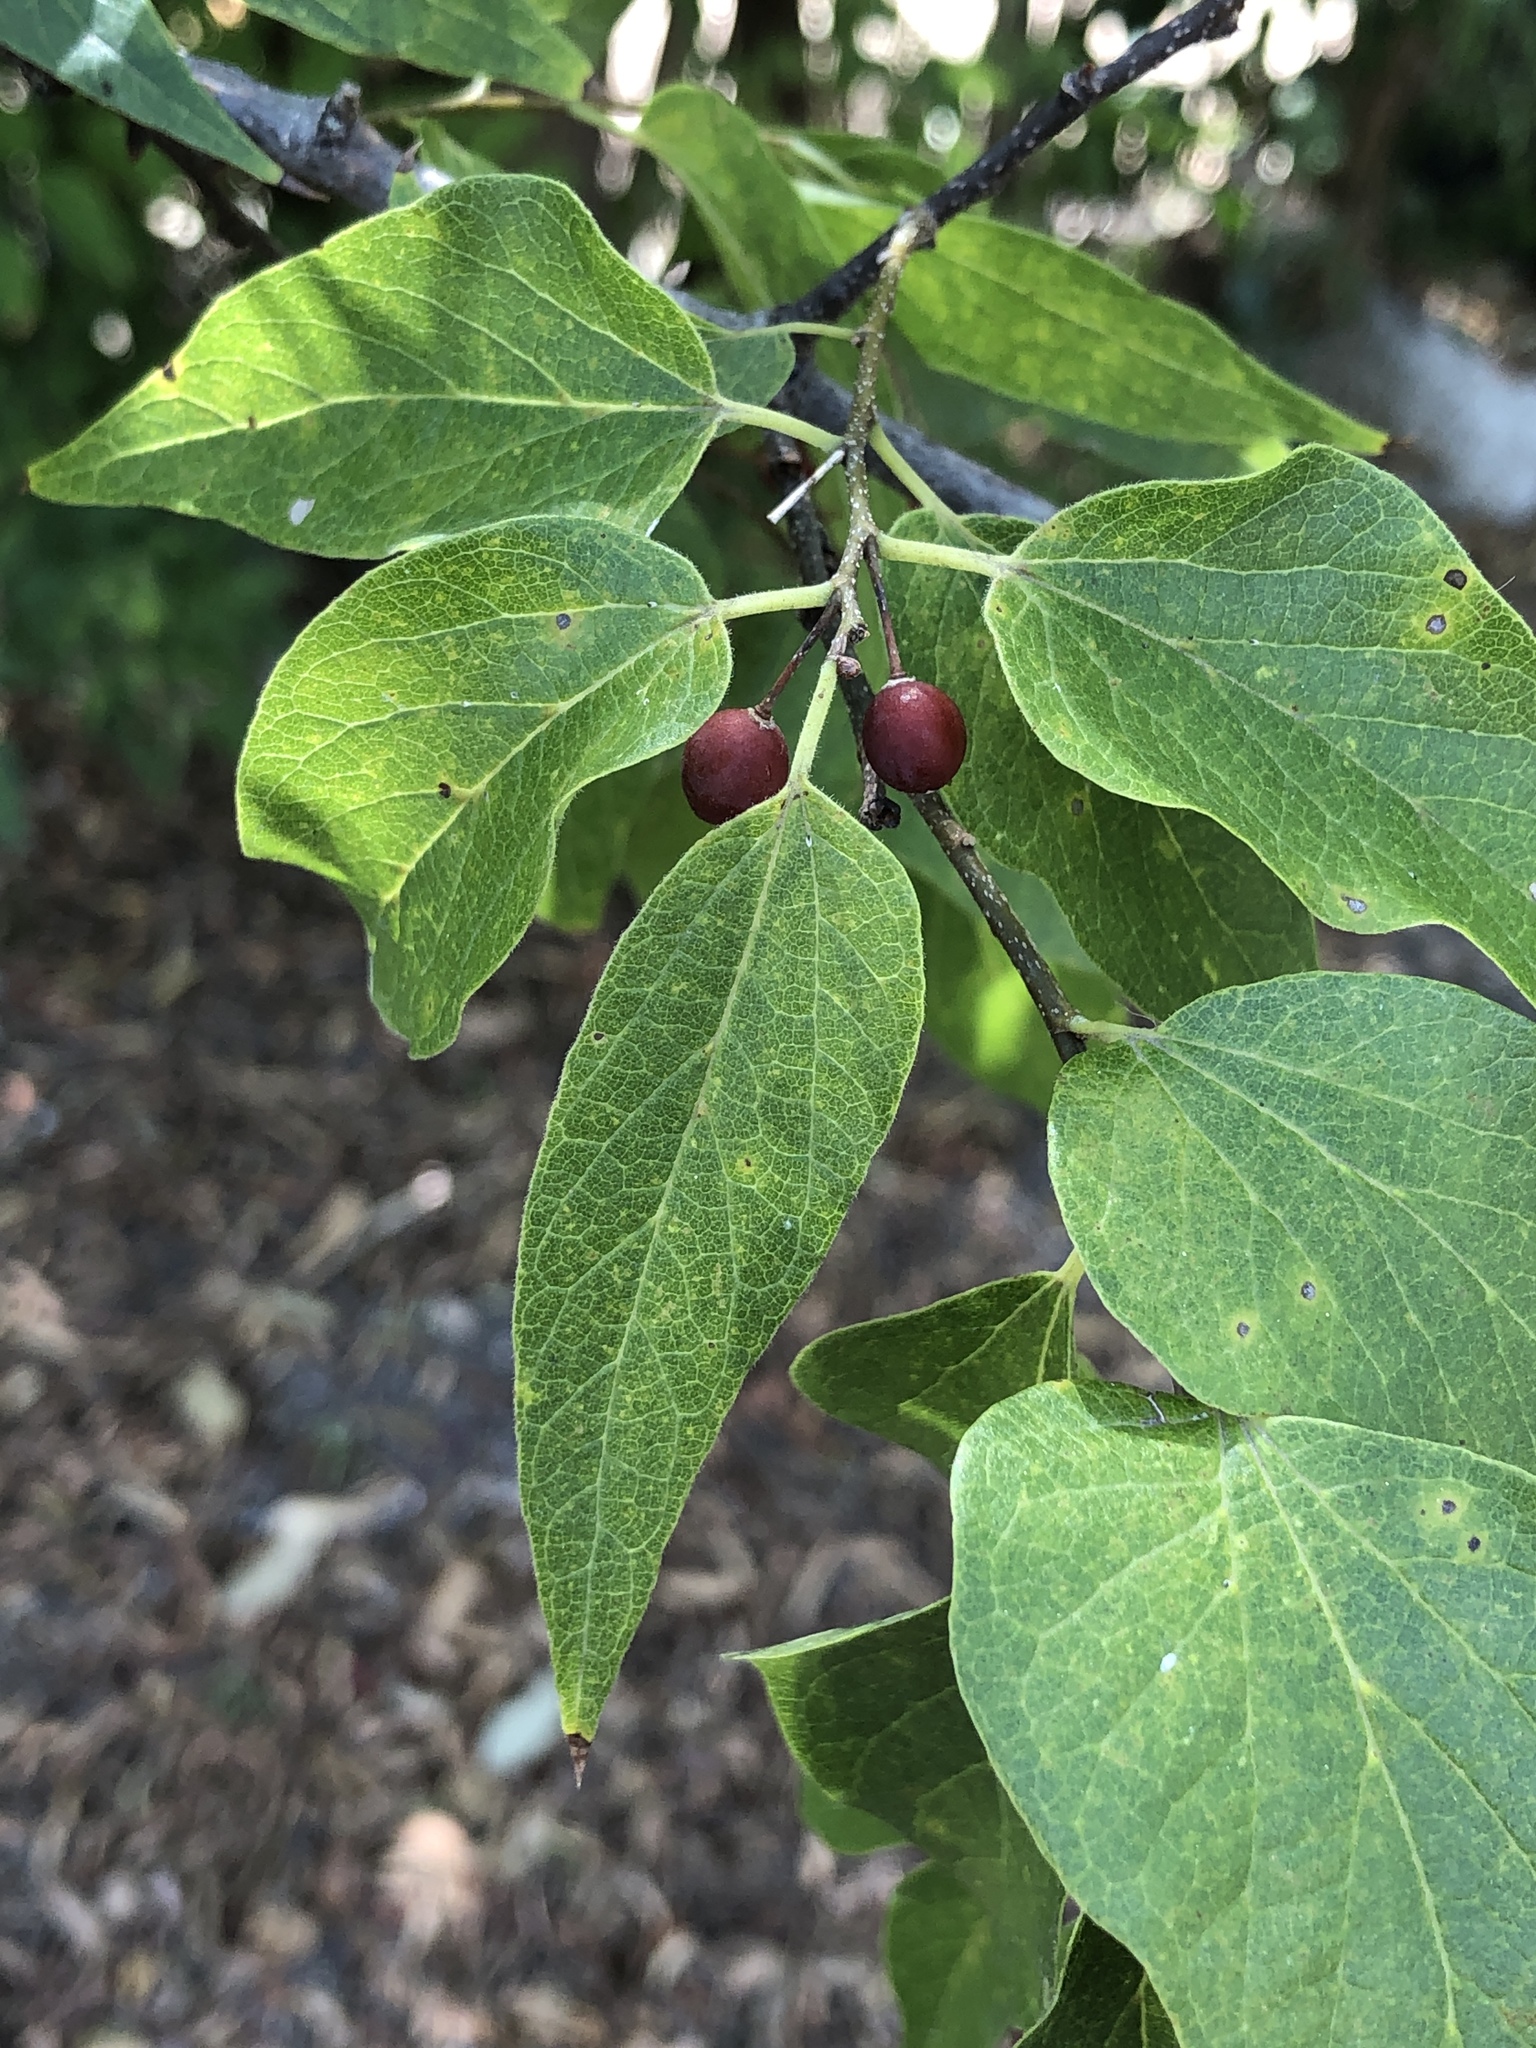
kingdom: Plantae
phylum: Tracheophyta
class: Magnoliopsida
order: Rosales
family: Cannabaceae
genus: Celtis
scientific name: Celtis laevigata
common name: Sugarberry
